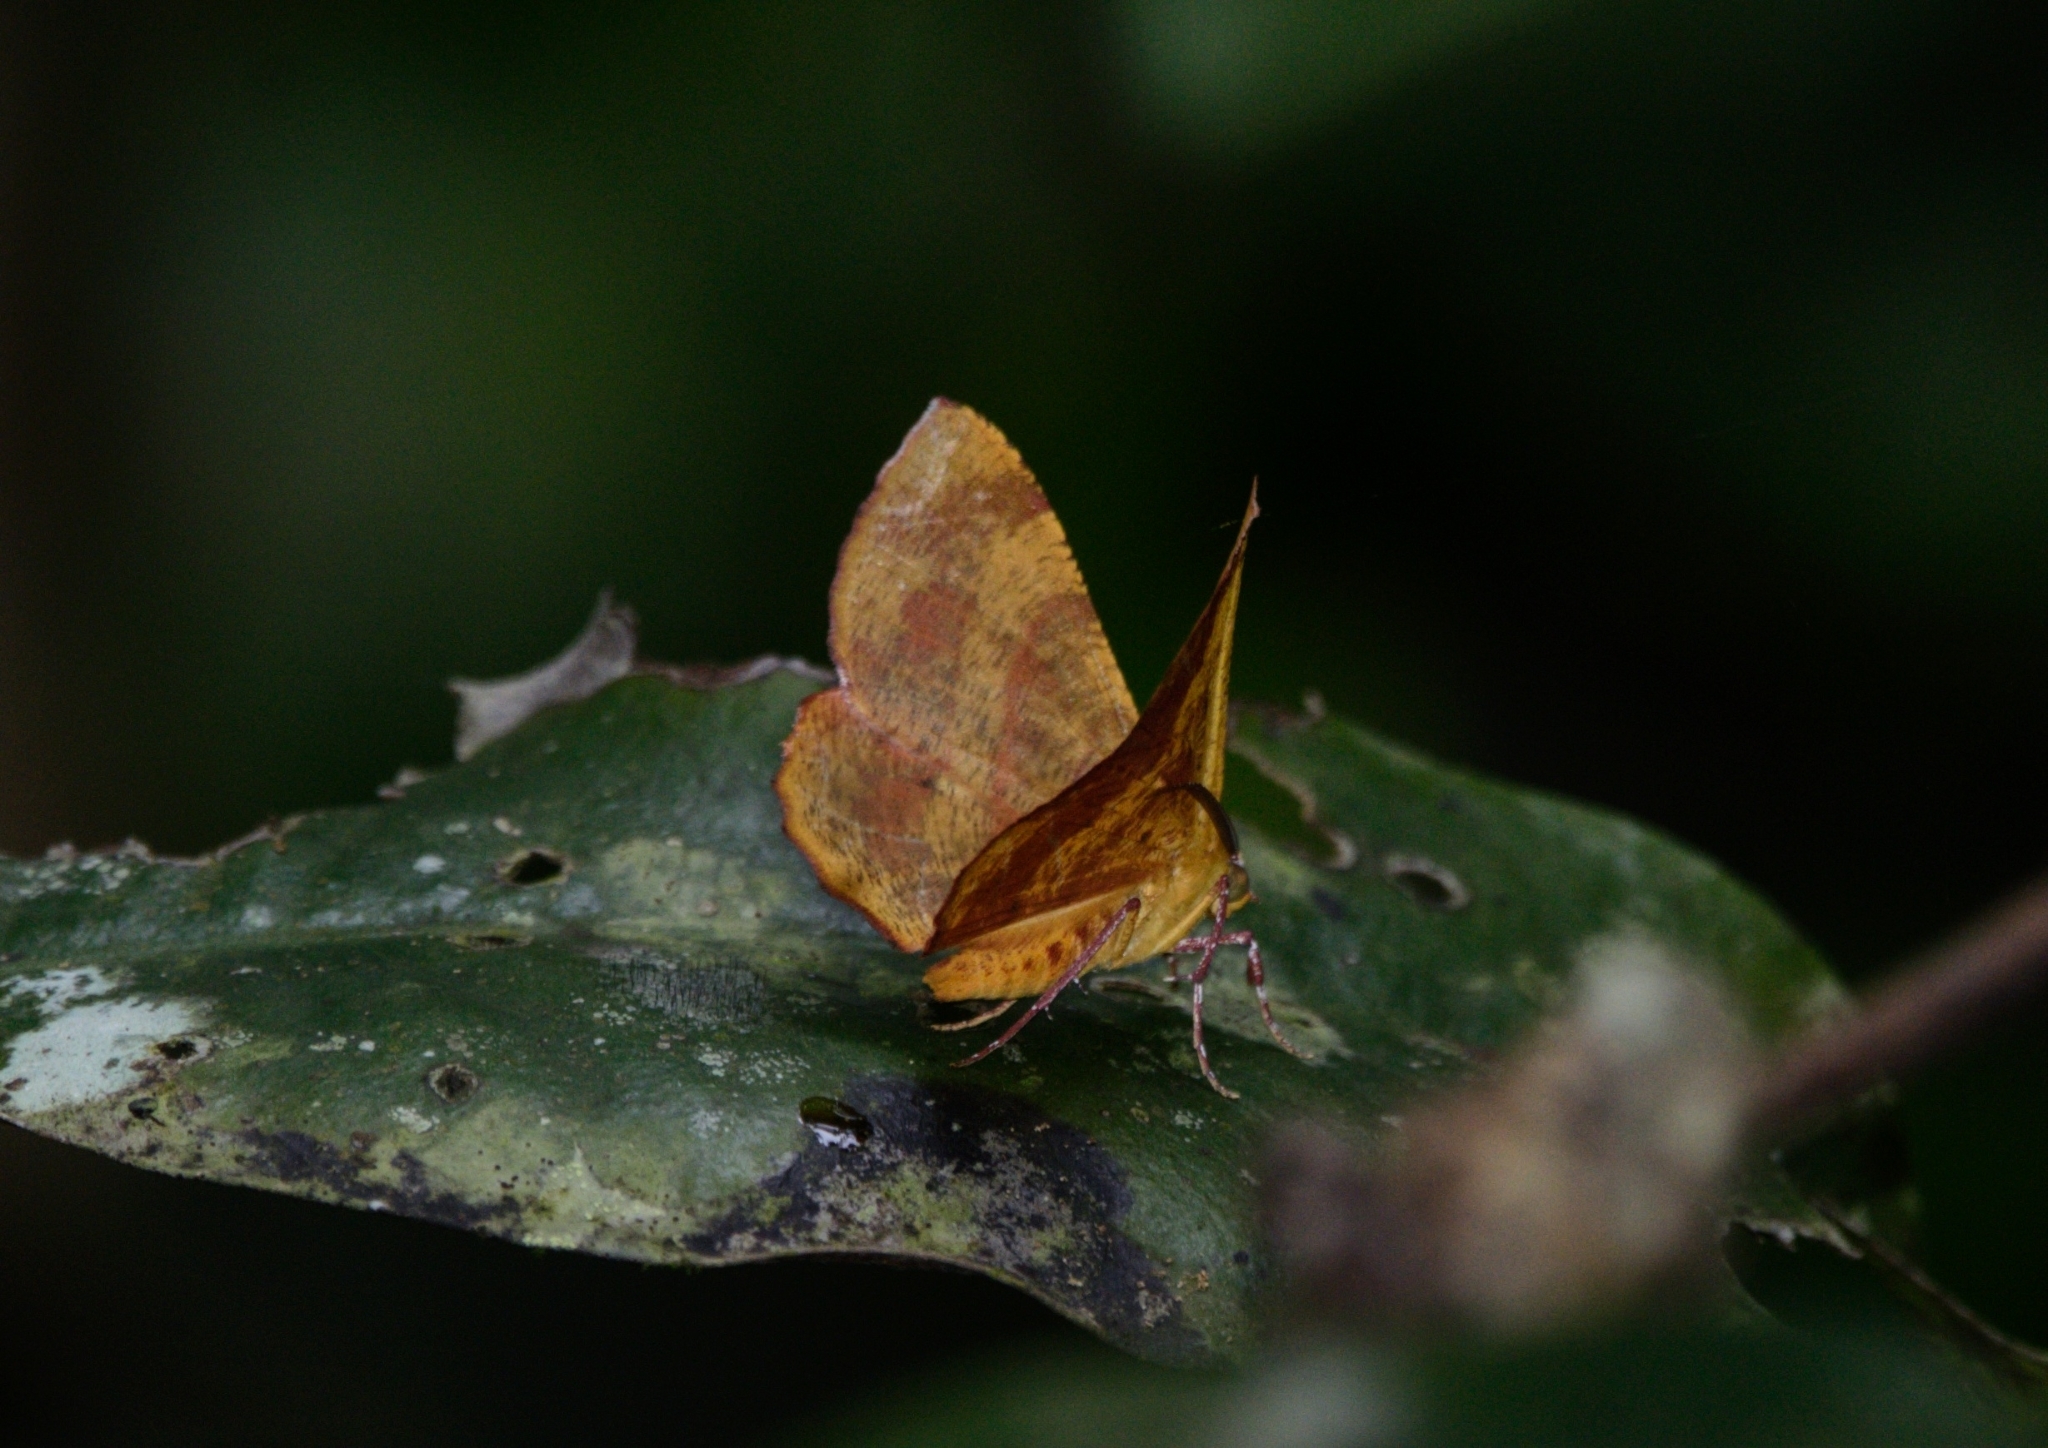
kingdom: Animalia
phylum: Arthropoda
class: Insecta
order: Lepidoptera
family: Geometridae
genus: Hyperythra
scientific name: Hyperythra lutea
